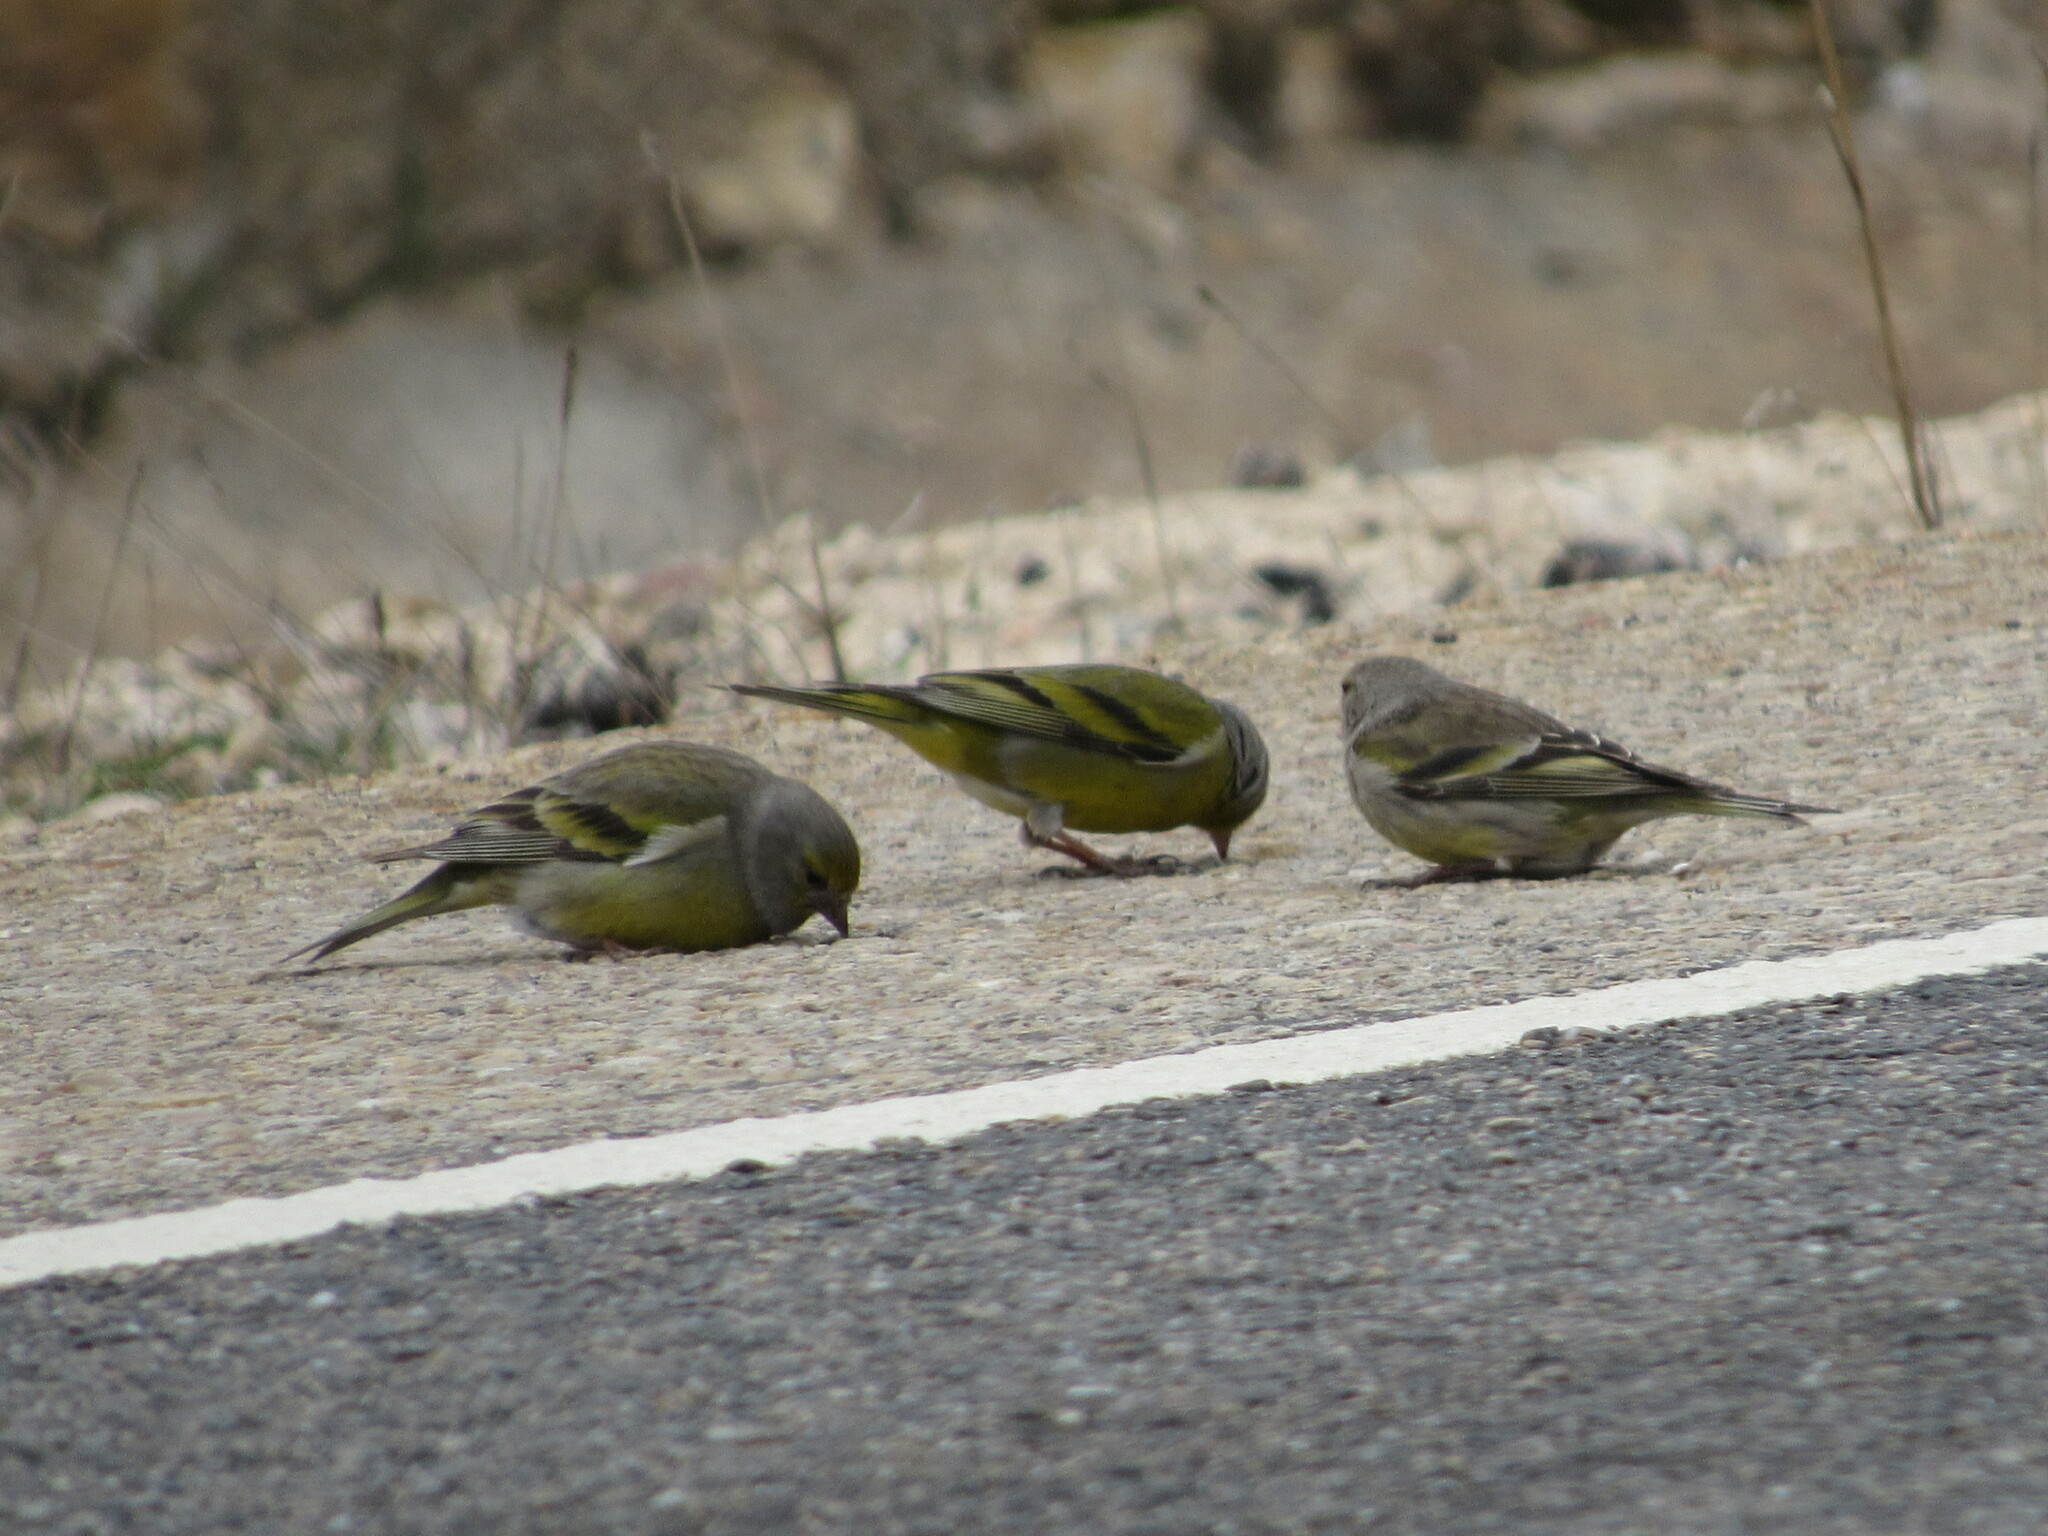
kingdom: Animalia
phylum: Chordata
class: Aves
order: Passeriformes
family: Fringillidae
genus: Carduelis
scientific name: Carduelis citrinella
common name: Citril finch
